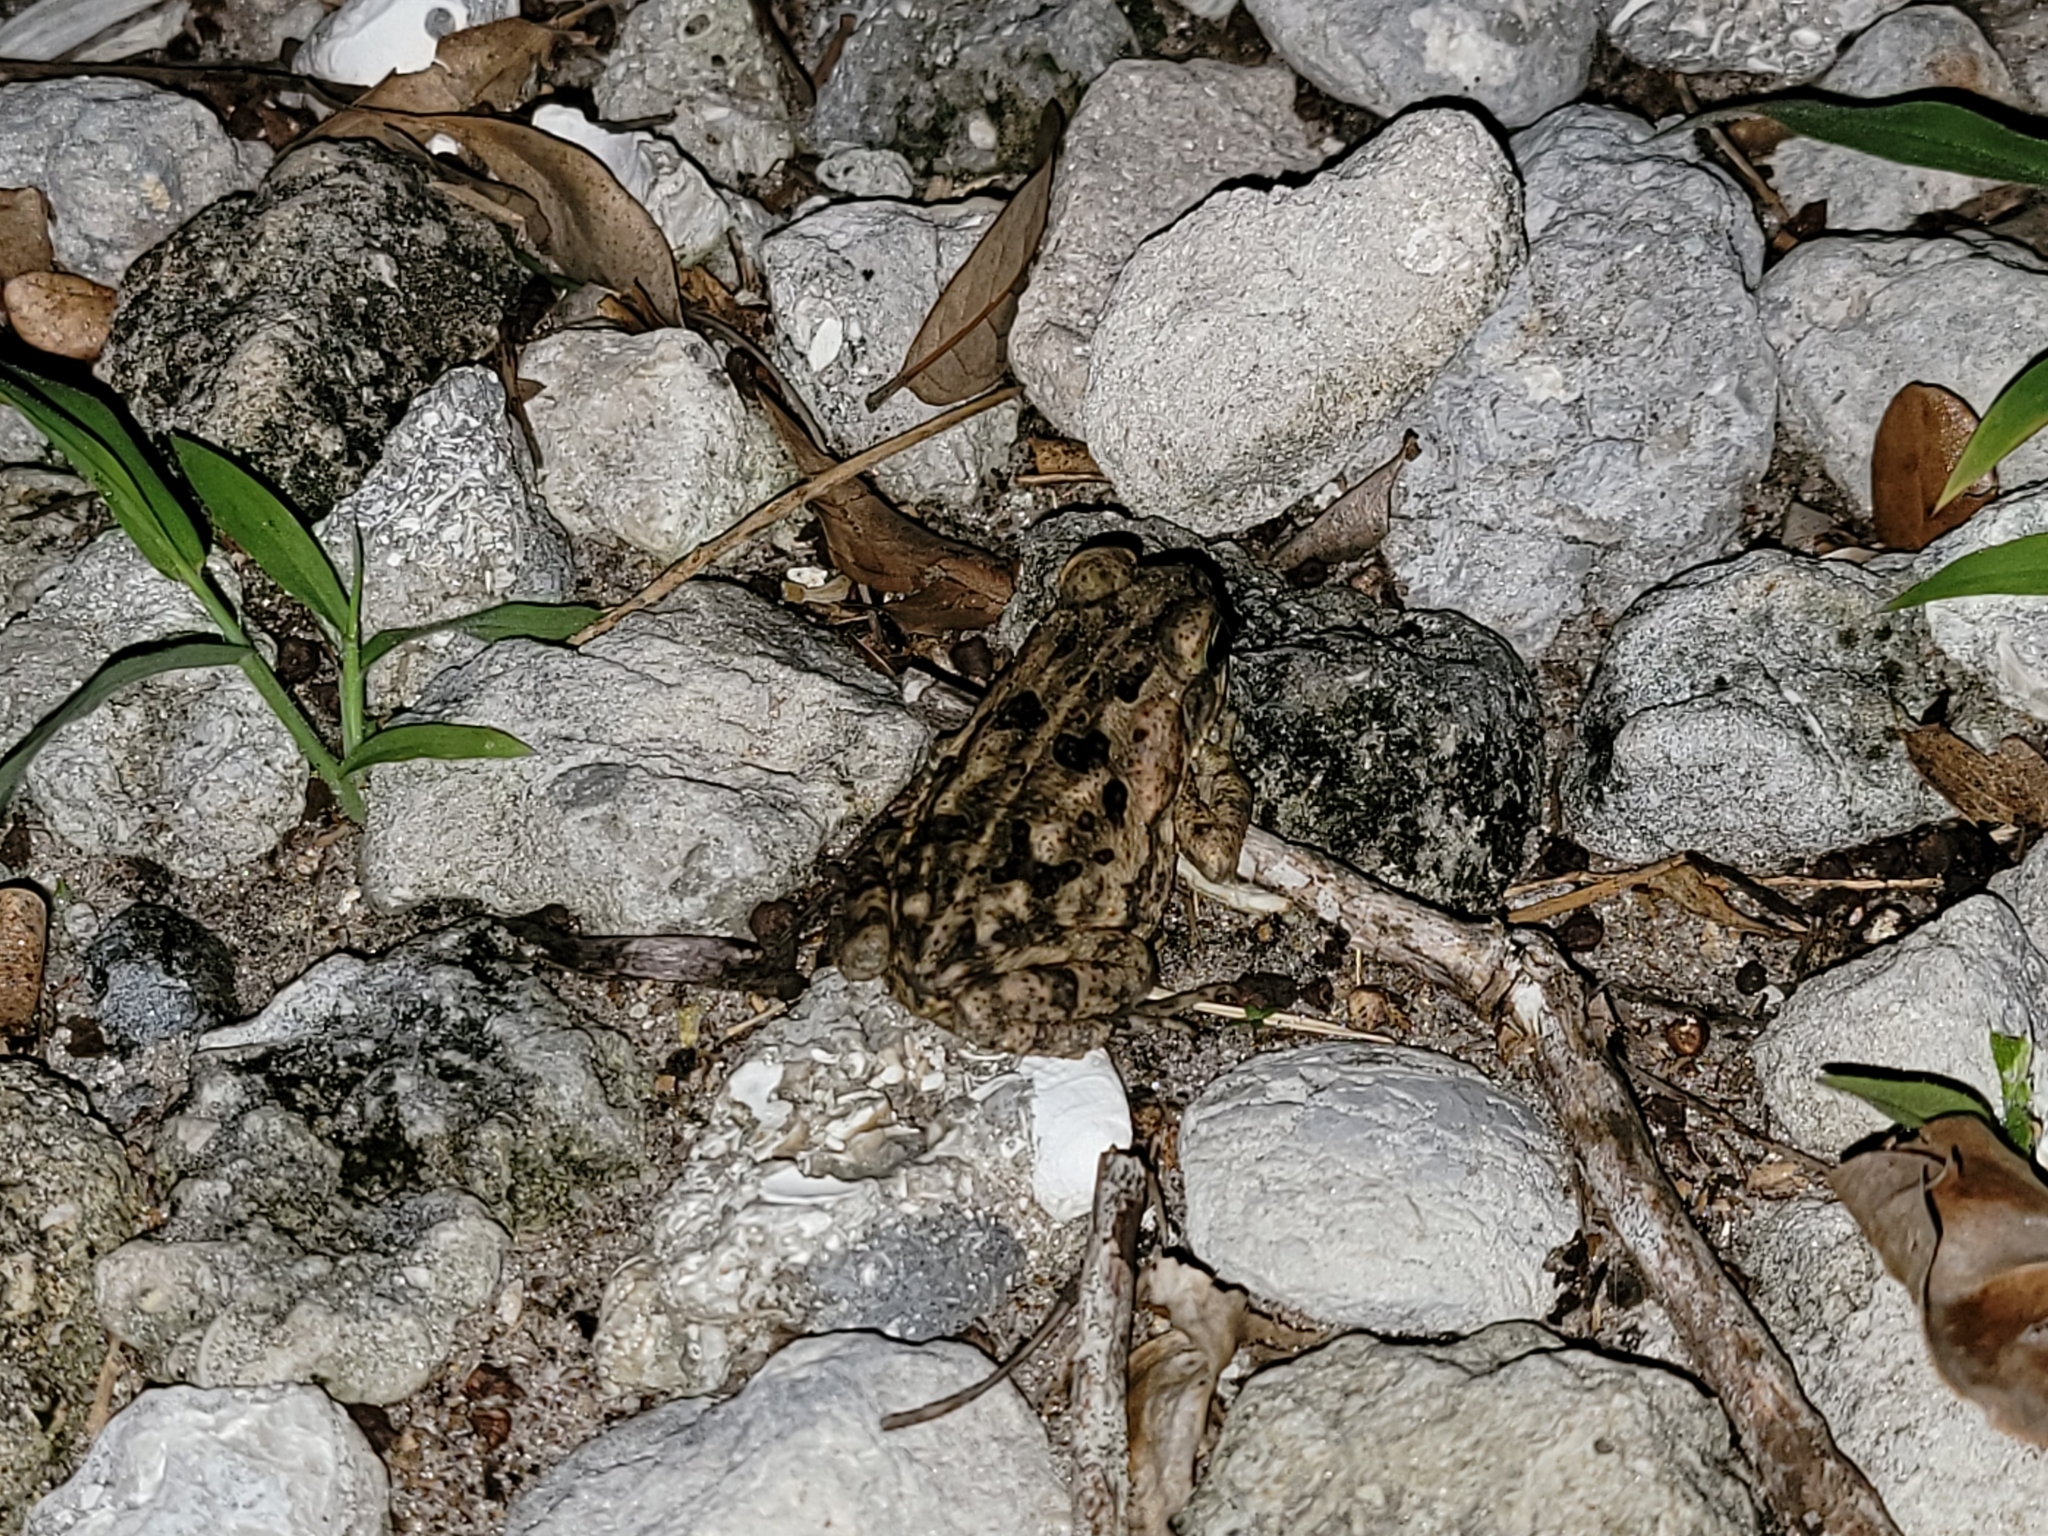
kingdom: Animalia
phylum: Chordata
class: Amphibia
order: Anura
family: Bufonidae
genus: Rhinella
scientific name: Rhinella marina
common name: Cane toad
